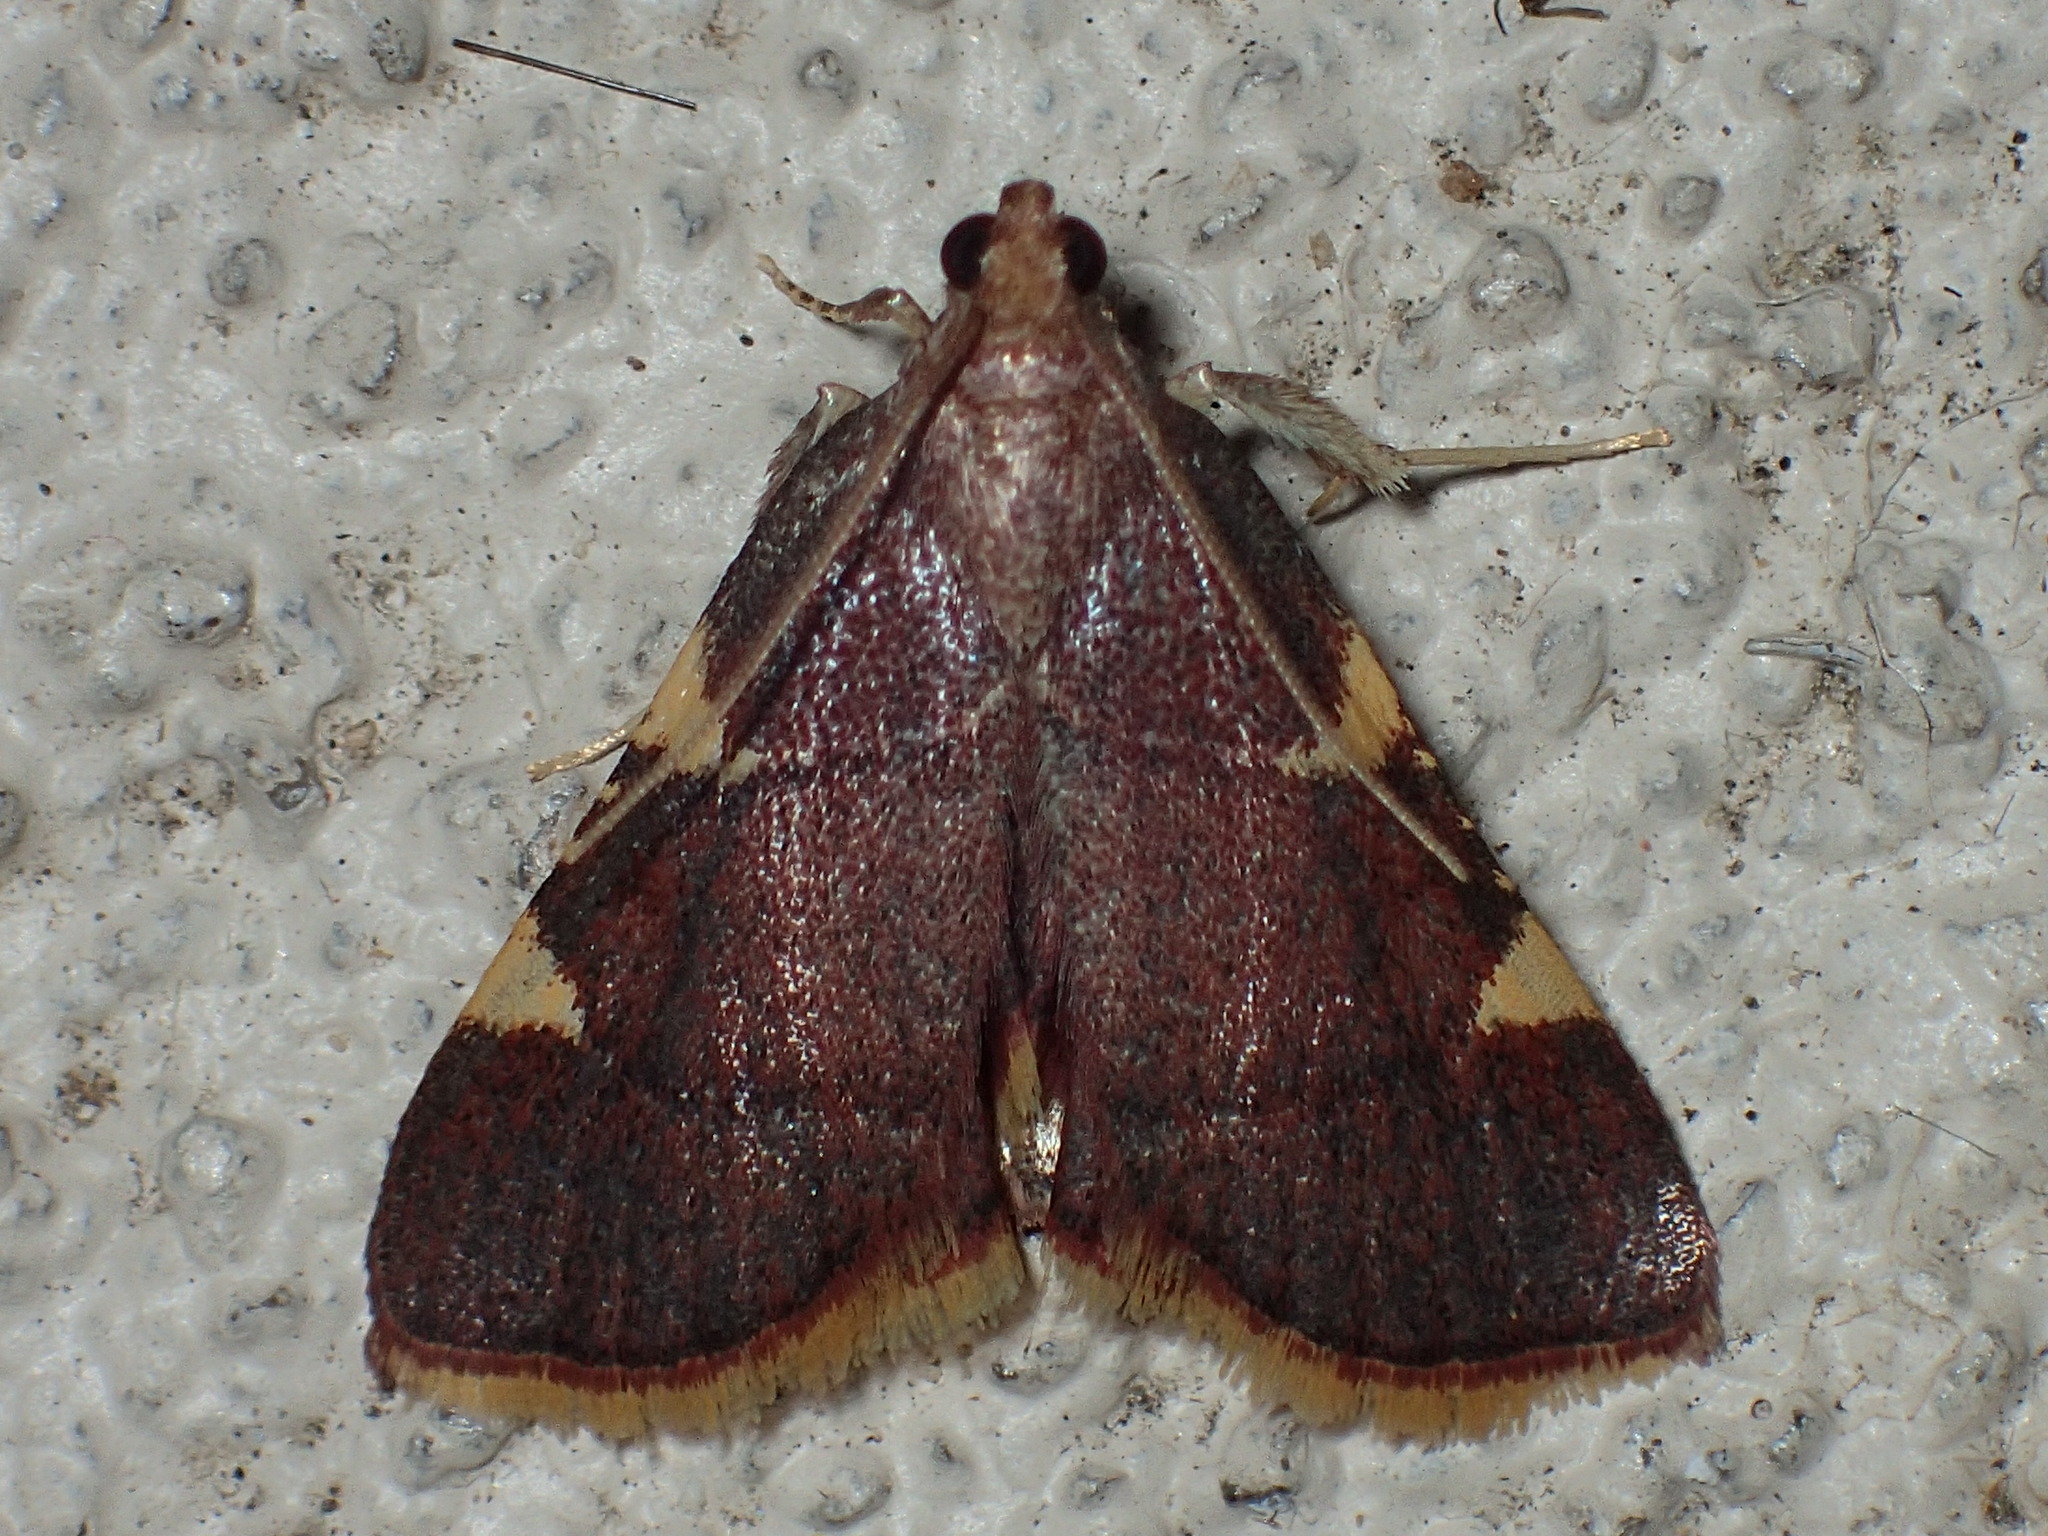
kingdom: Animalia
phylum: Arthropoda
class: Insecta
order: Lepidoptera
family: Pyralidae
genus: Hypsopygia
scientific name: Hypsopygia olinalis
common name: Yellow-fringed dolichomia moth
